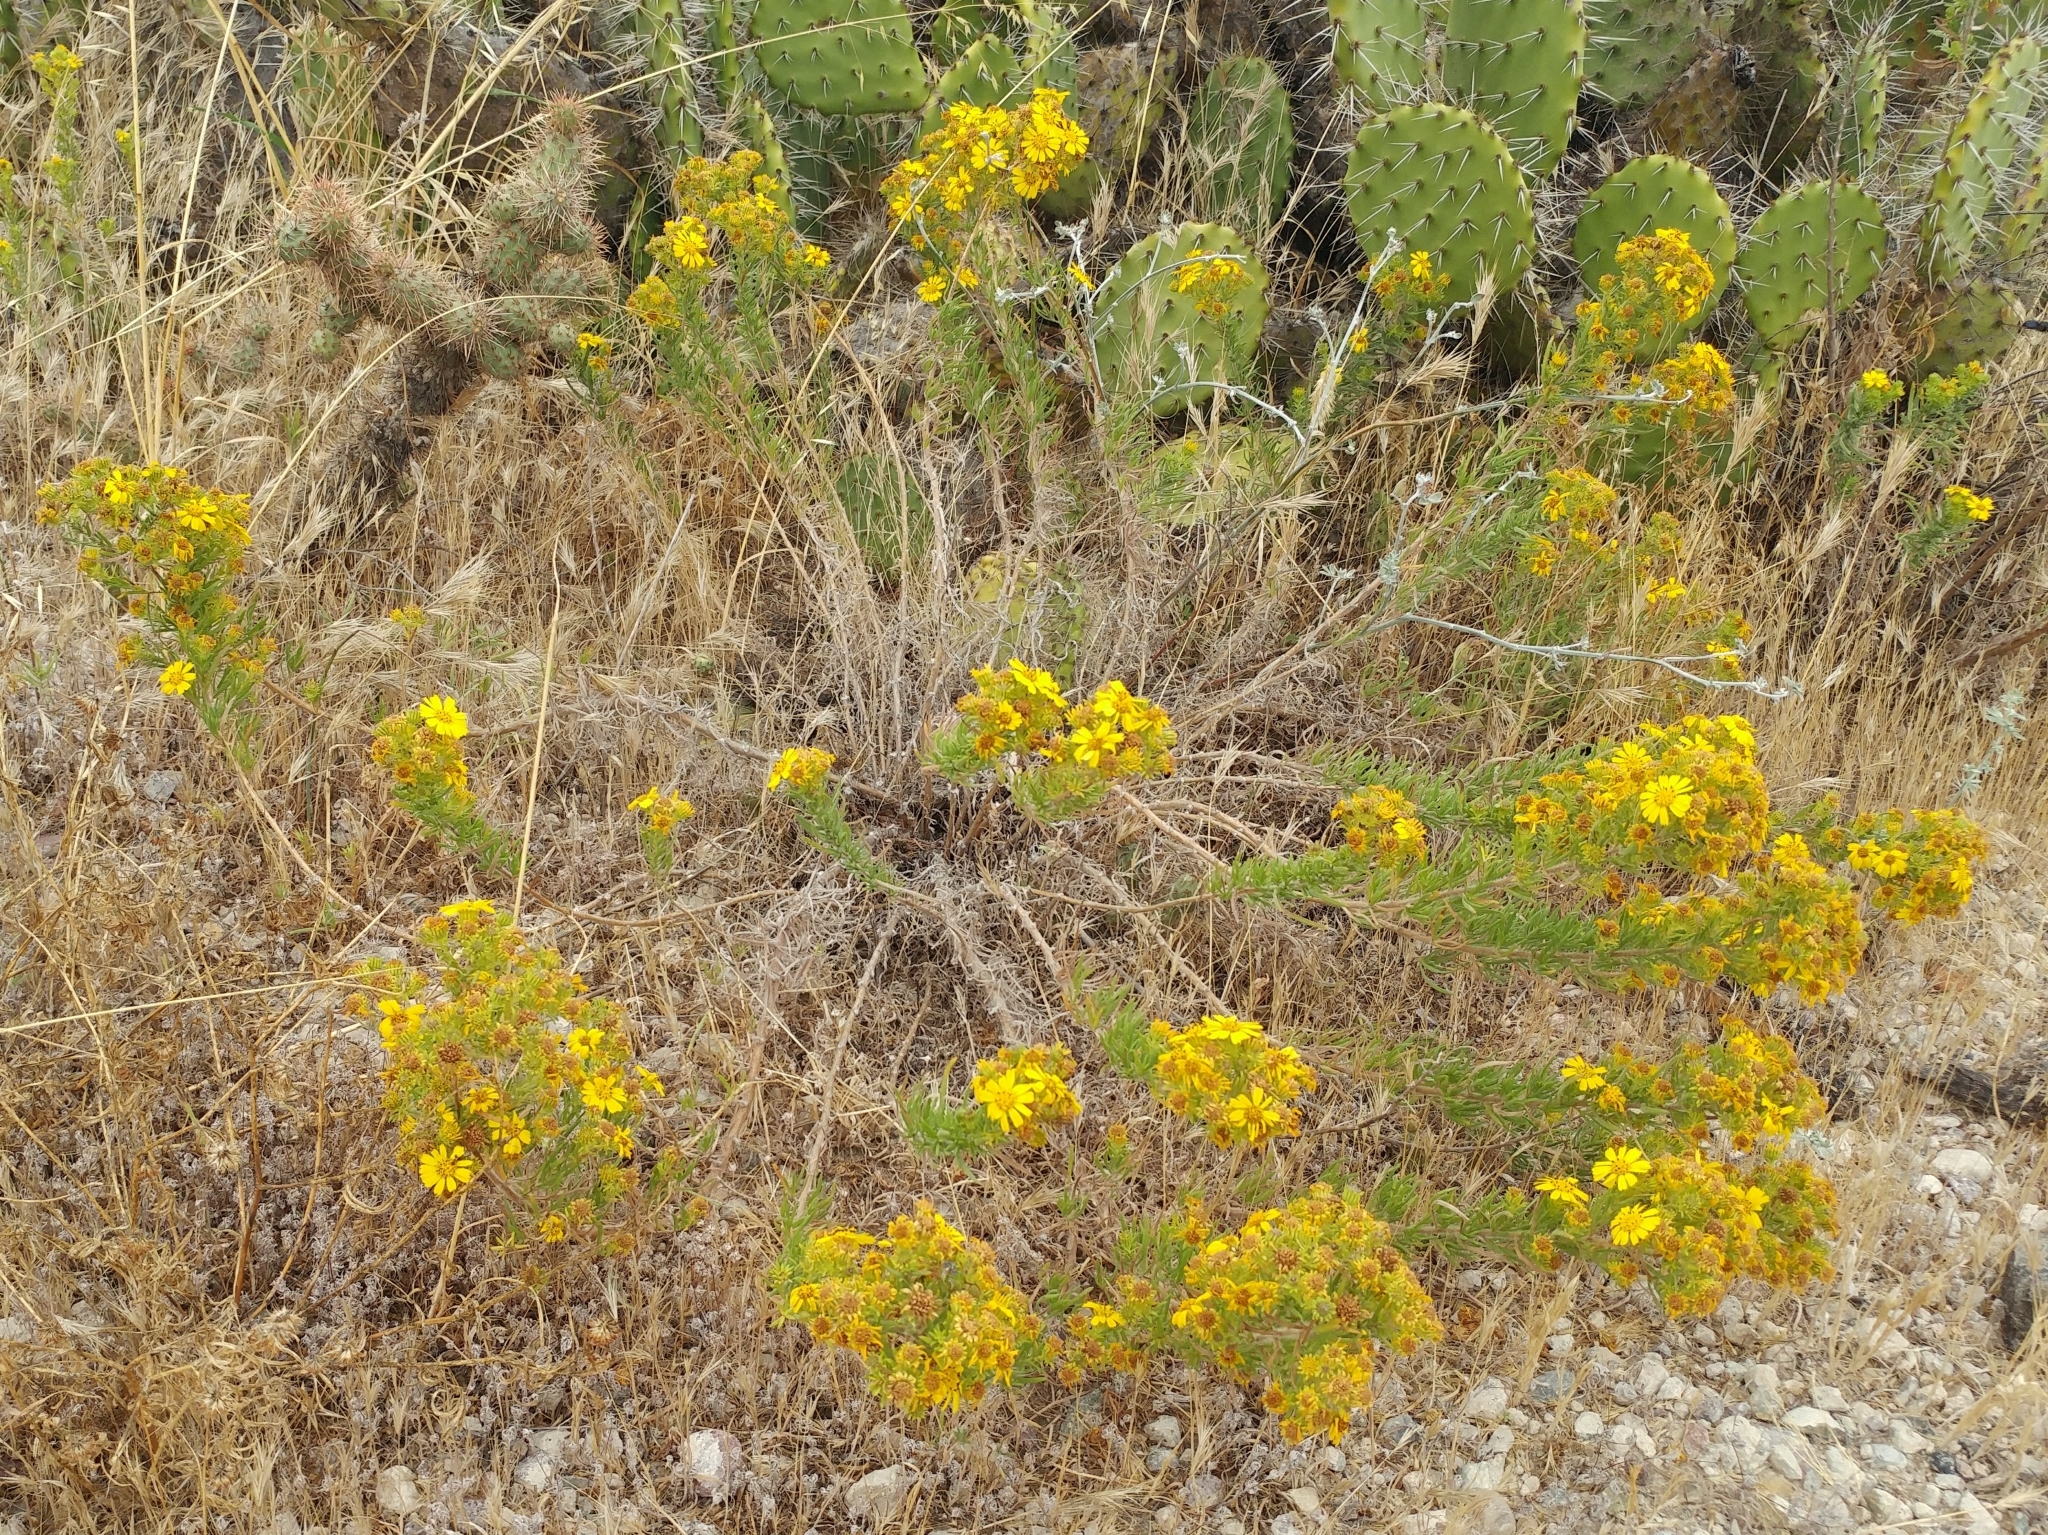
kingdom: Plantae
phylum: Tracheophyta
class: Magnoliopsida
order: Asterales
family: Asteraceae
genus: Deinandra
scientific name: Deinandra clementina
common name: Island tarplant
